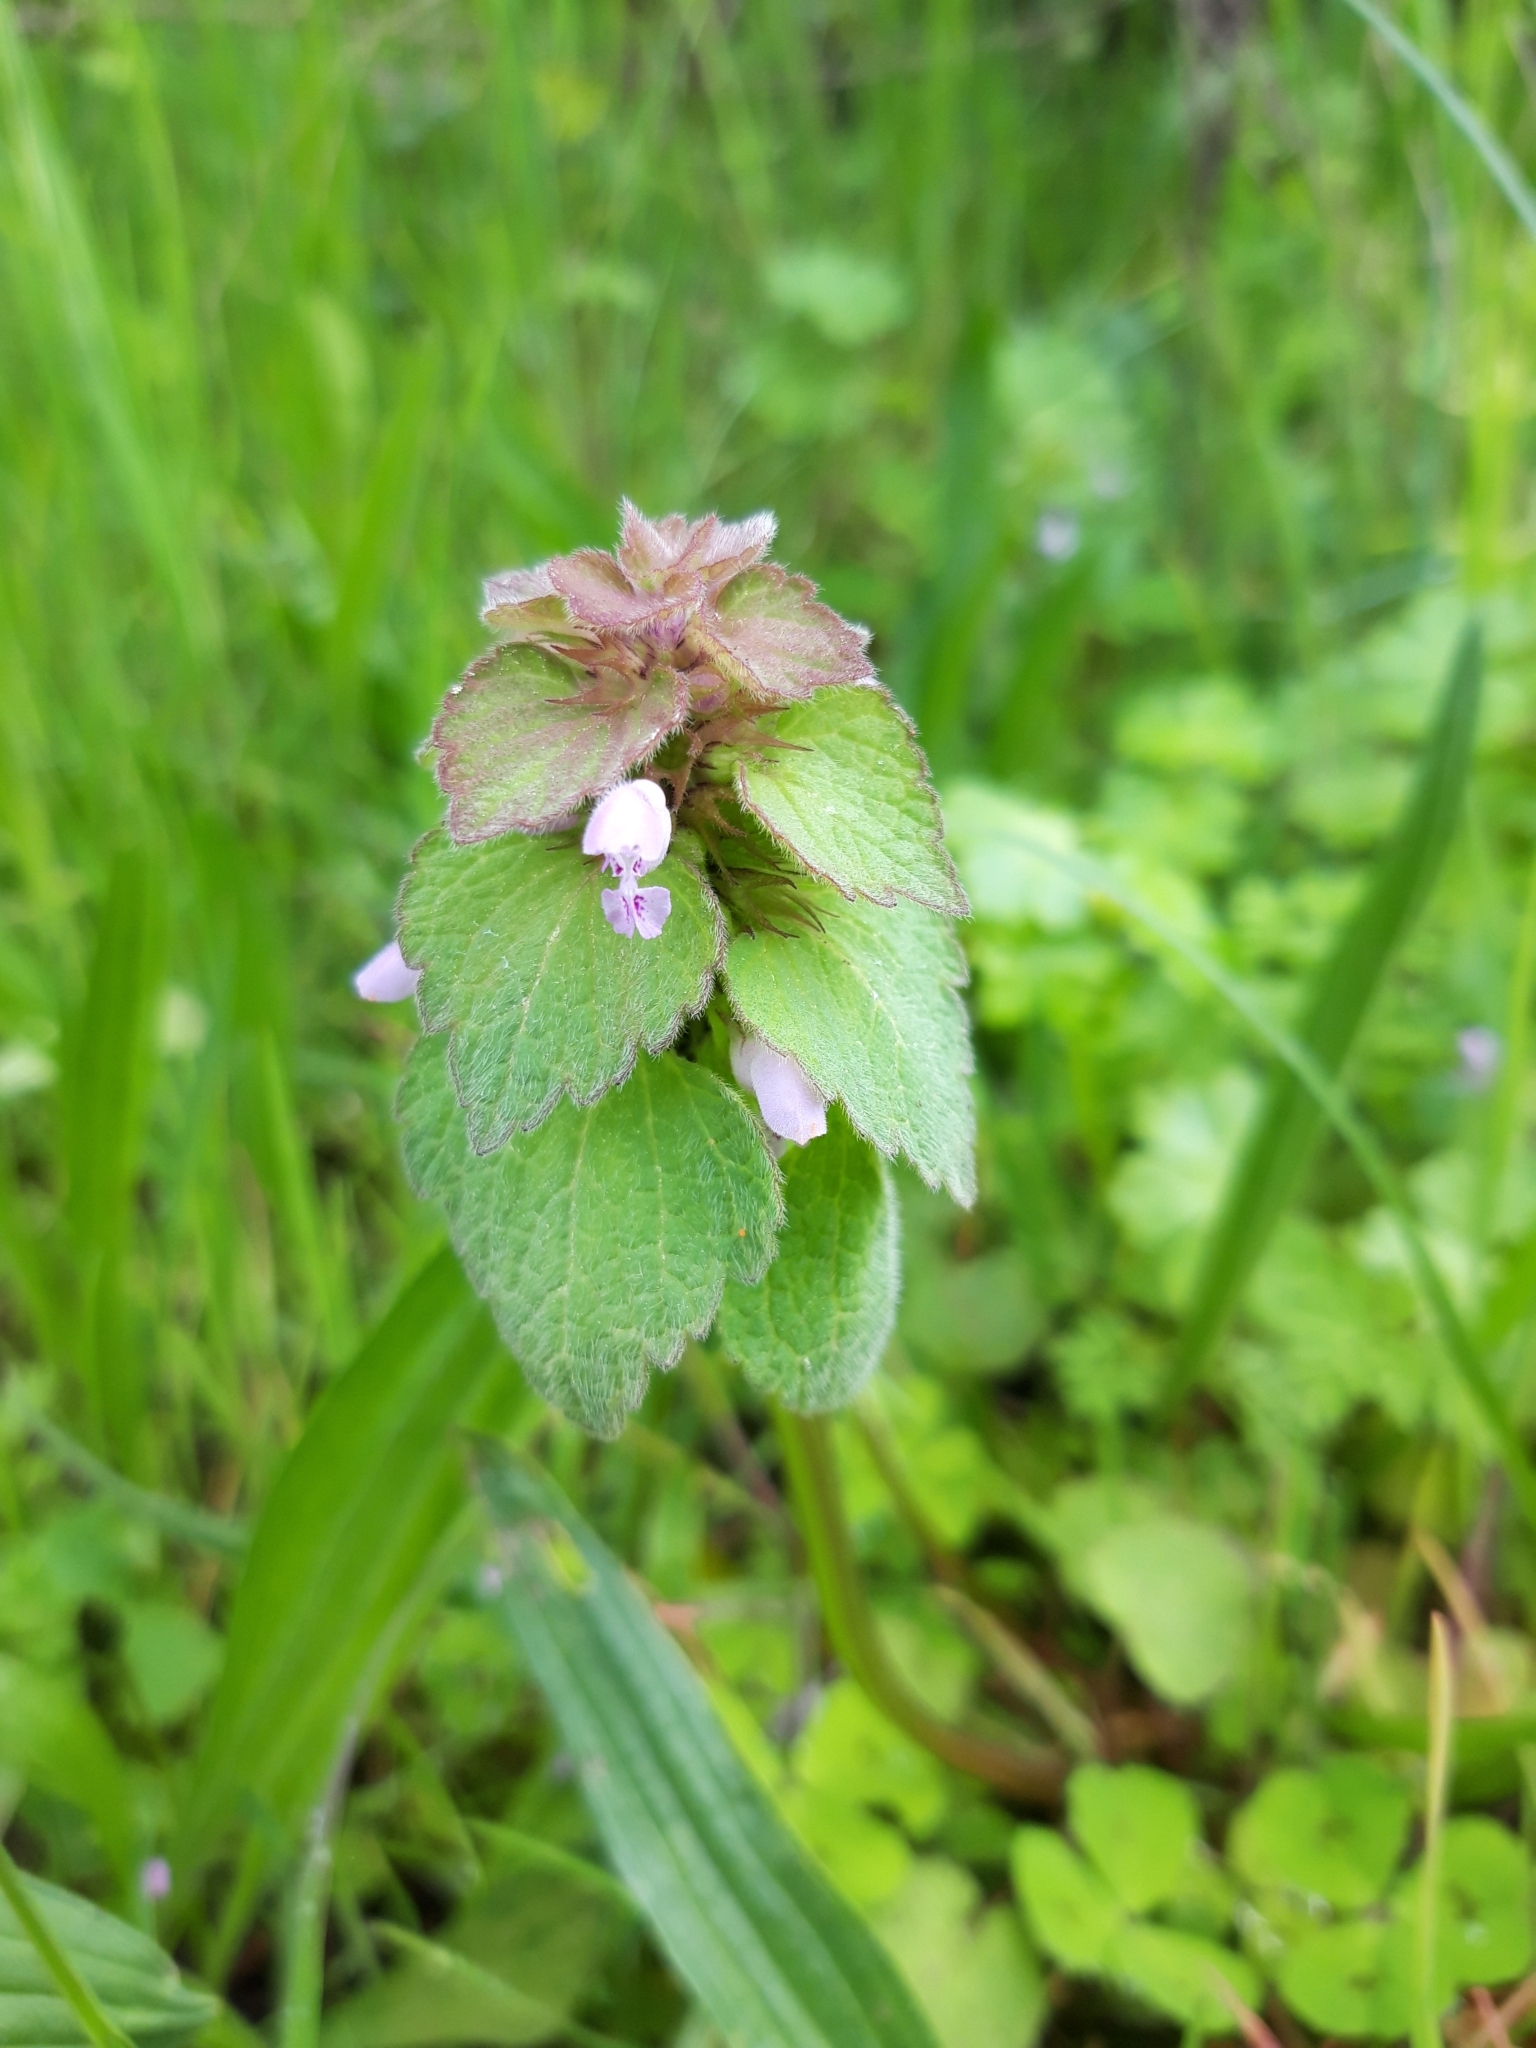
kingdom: Plantae
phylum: Tracheophyta
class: Magnoliopsida
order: Lamiales
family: Lamiaceae
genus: Lamium
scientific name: Lamium purpureum
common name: Red dead-nettle
